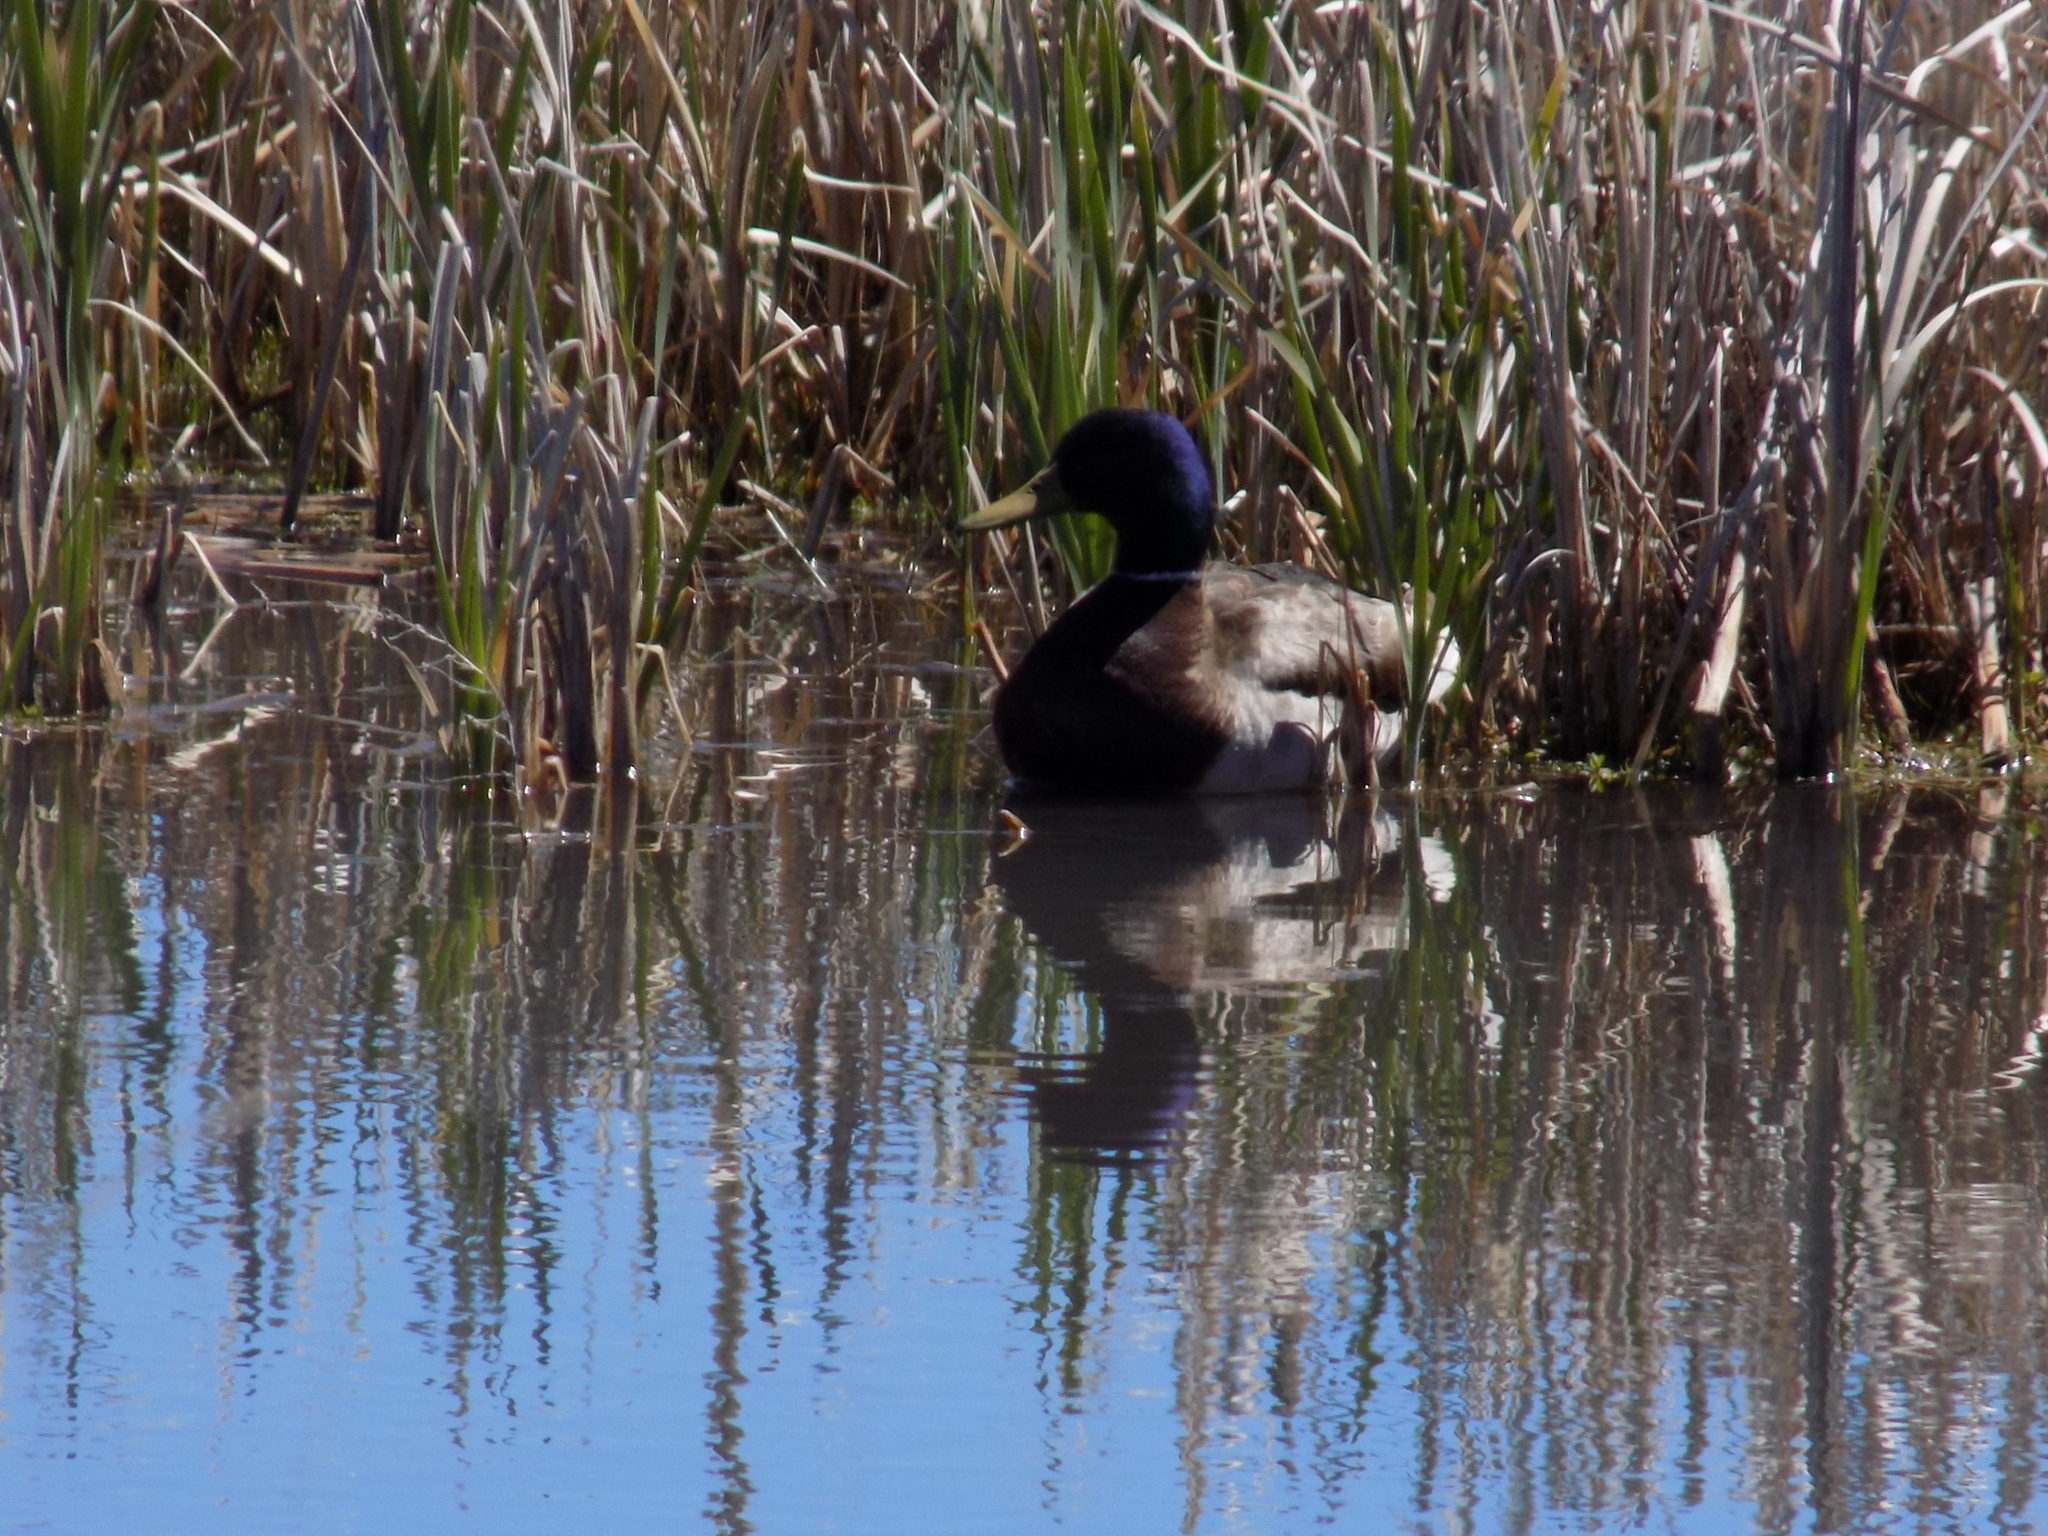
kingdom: Animalia
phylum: Chordata
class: Aves
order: Anseriformes
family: Anatidae
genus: Anas
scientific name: Anas platyrhynchos
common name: Mallard
